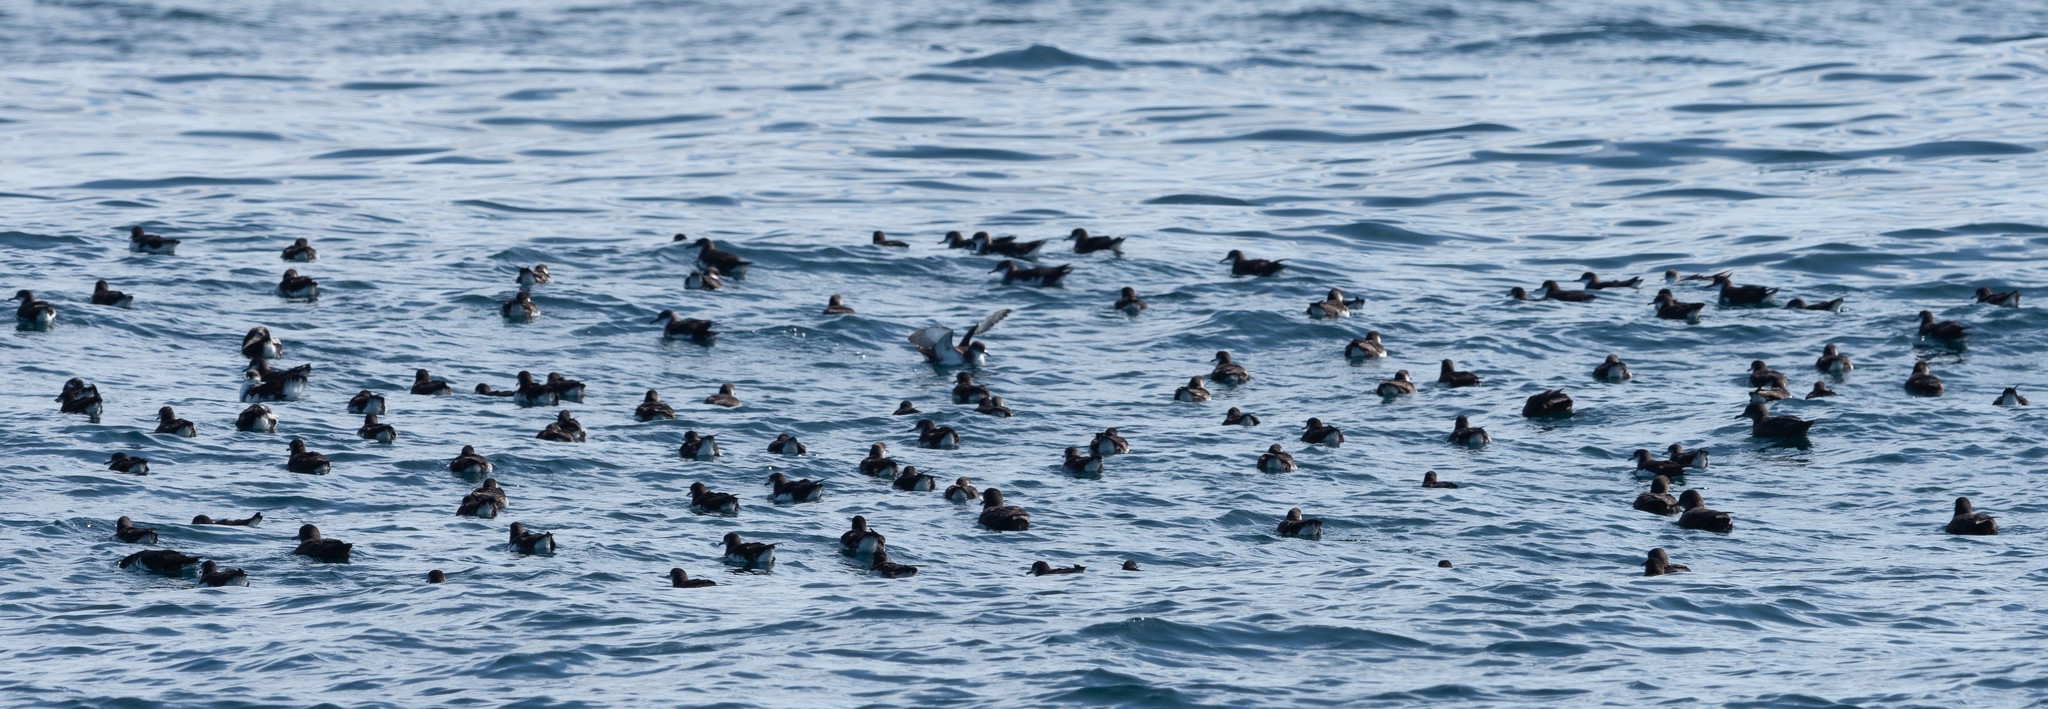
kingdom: Animalia
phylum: Chordata
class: Aves
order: Procellariiformes
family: Procellariidae
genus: Puffinus
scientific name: Puffinus puffinus
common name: Manx shearwater
